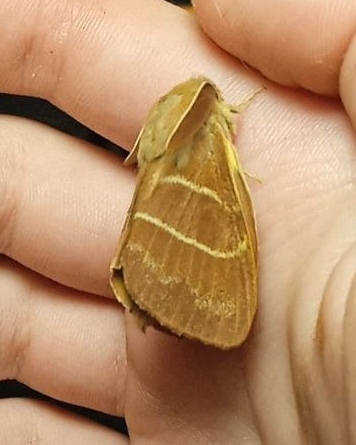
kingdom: Animalia
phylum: Arthropoda
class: Insecta
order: Lepidoptera
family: Lasiocampidae
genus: Macrothylacia
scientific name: Macrothylacia rubi
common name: Fox moth
